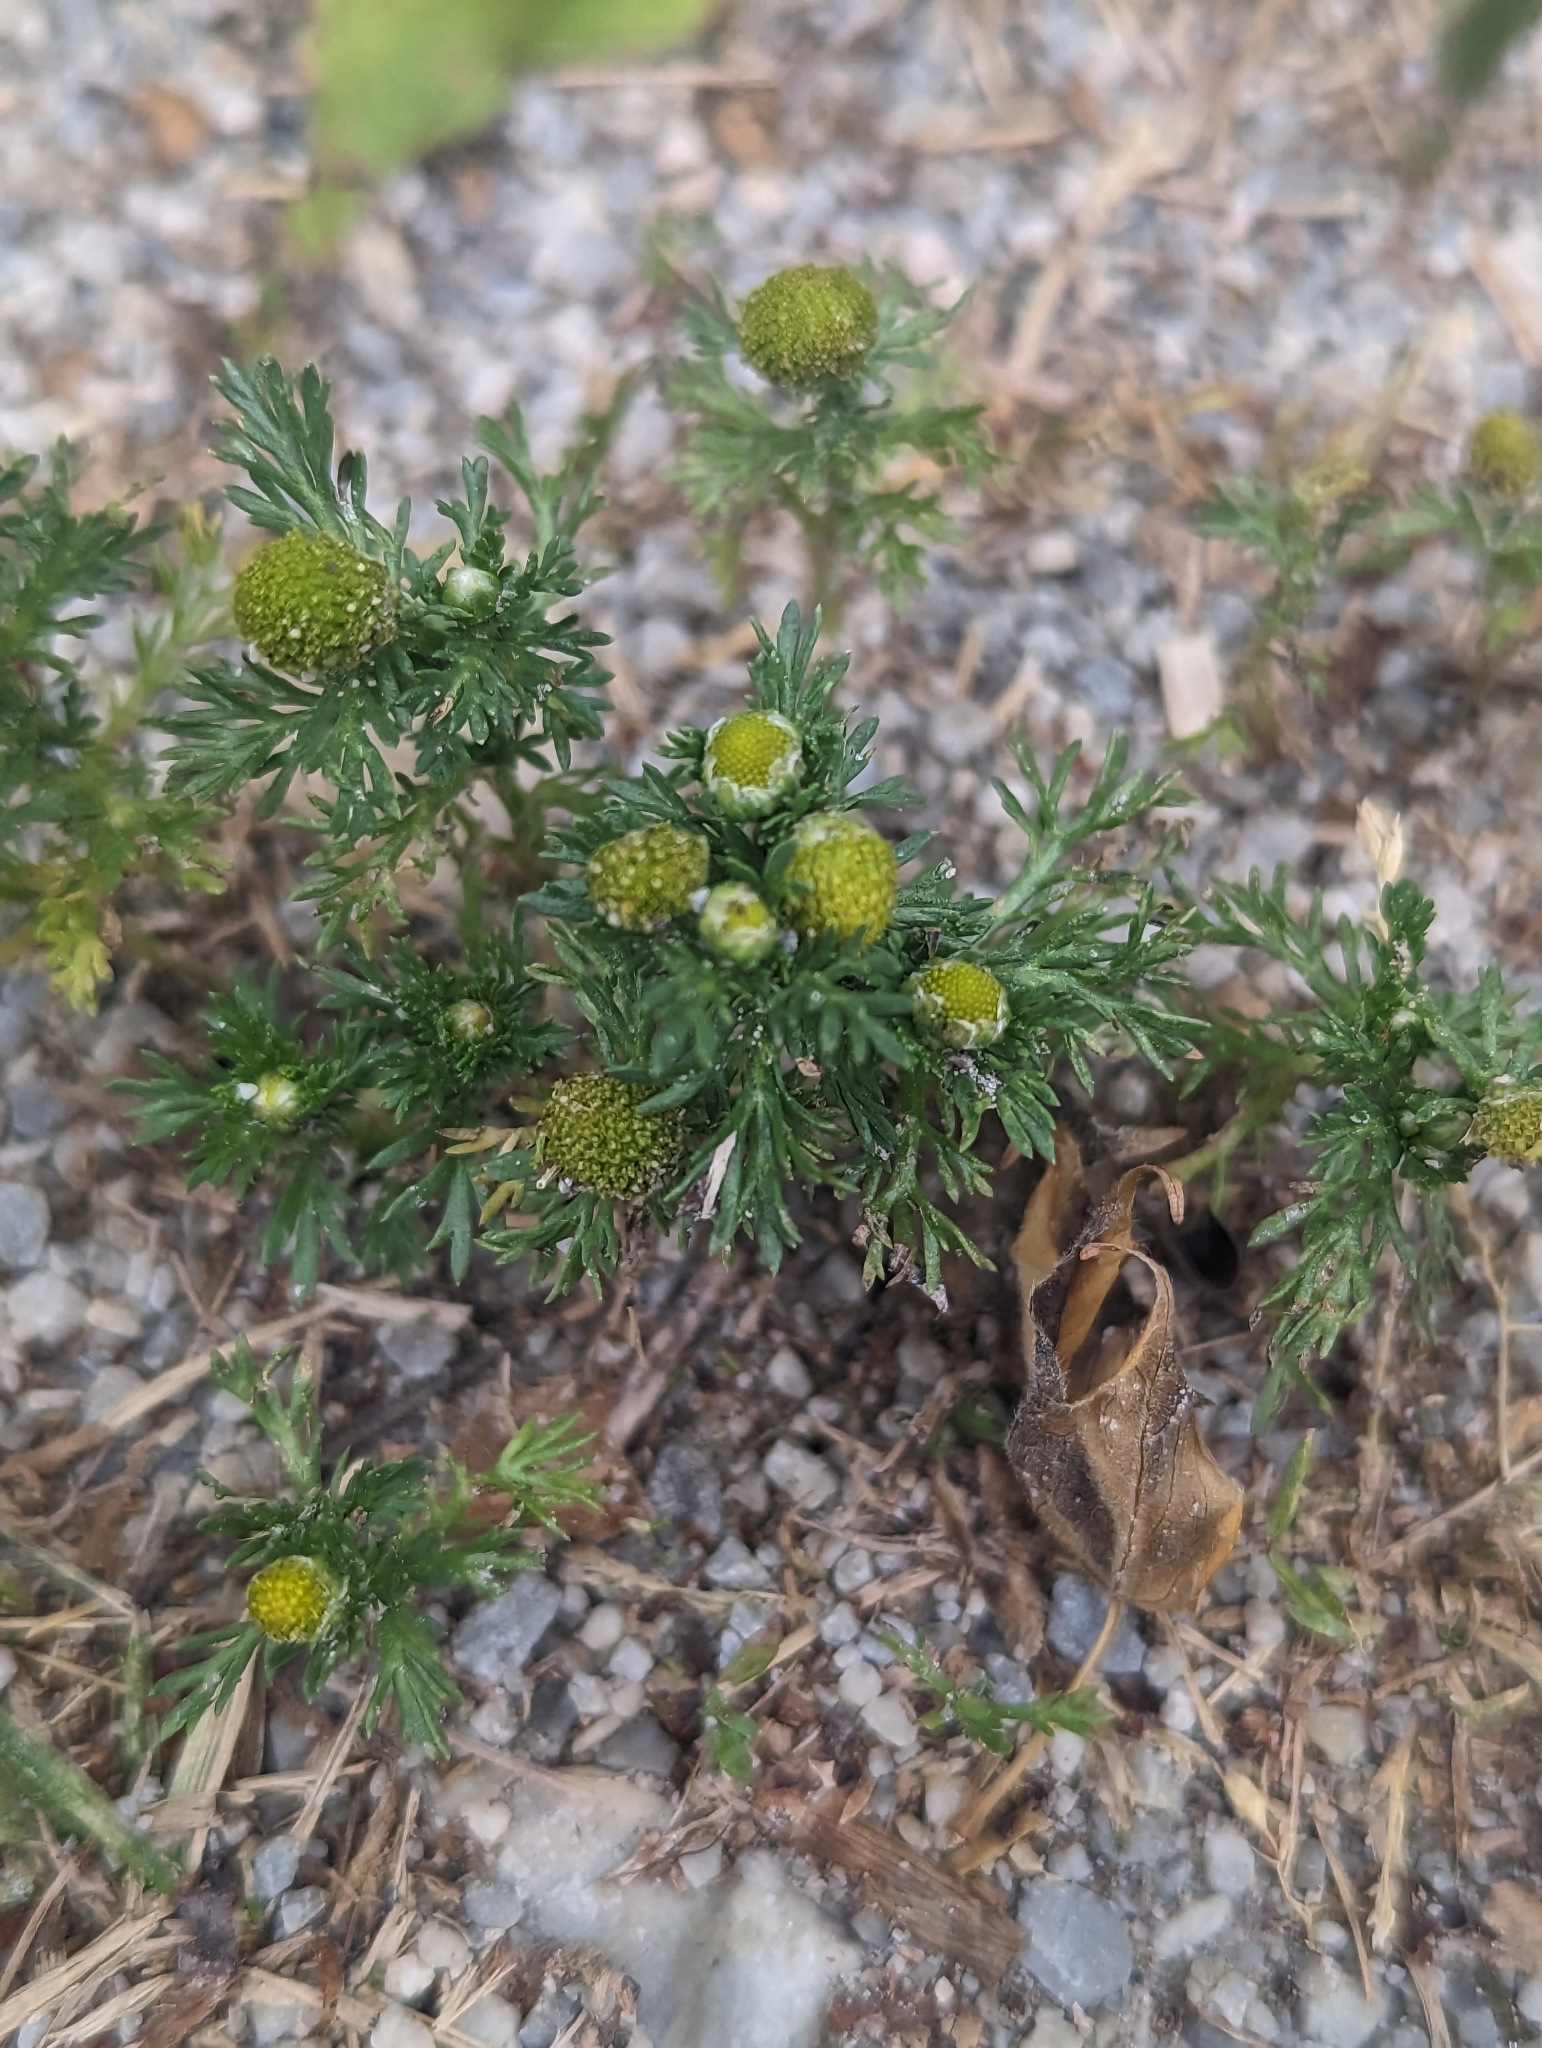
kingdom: Plantae
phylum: Tracheophyta
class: Magnoliopsida
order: Asterales
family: Asteraceae
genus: Matricaria
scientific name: Matricaria discoidea
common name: Disc mayweed
